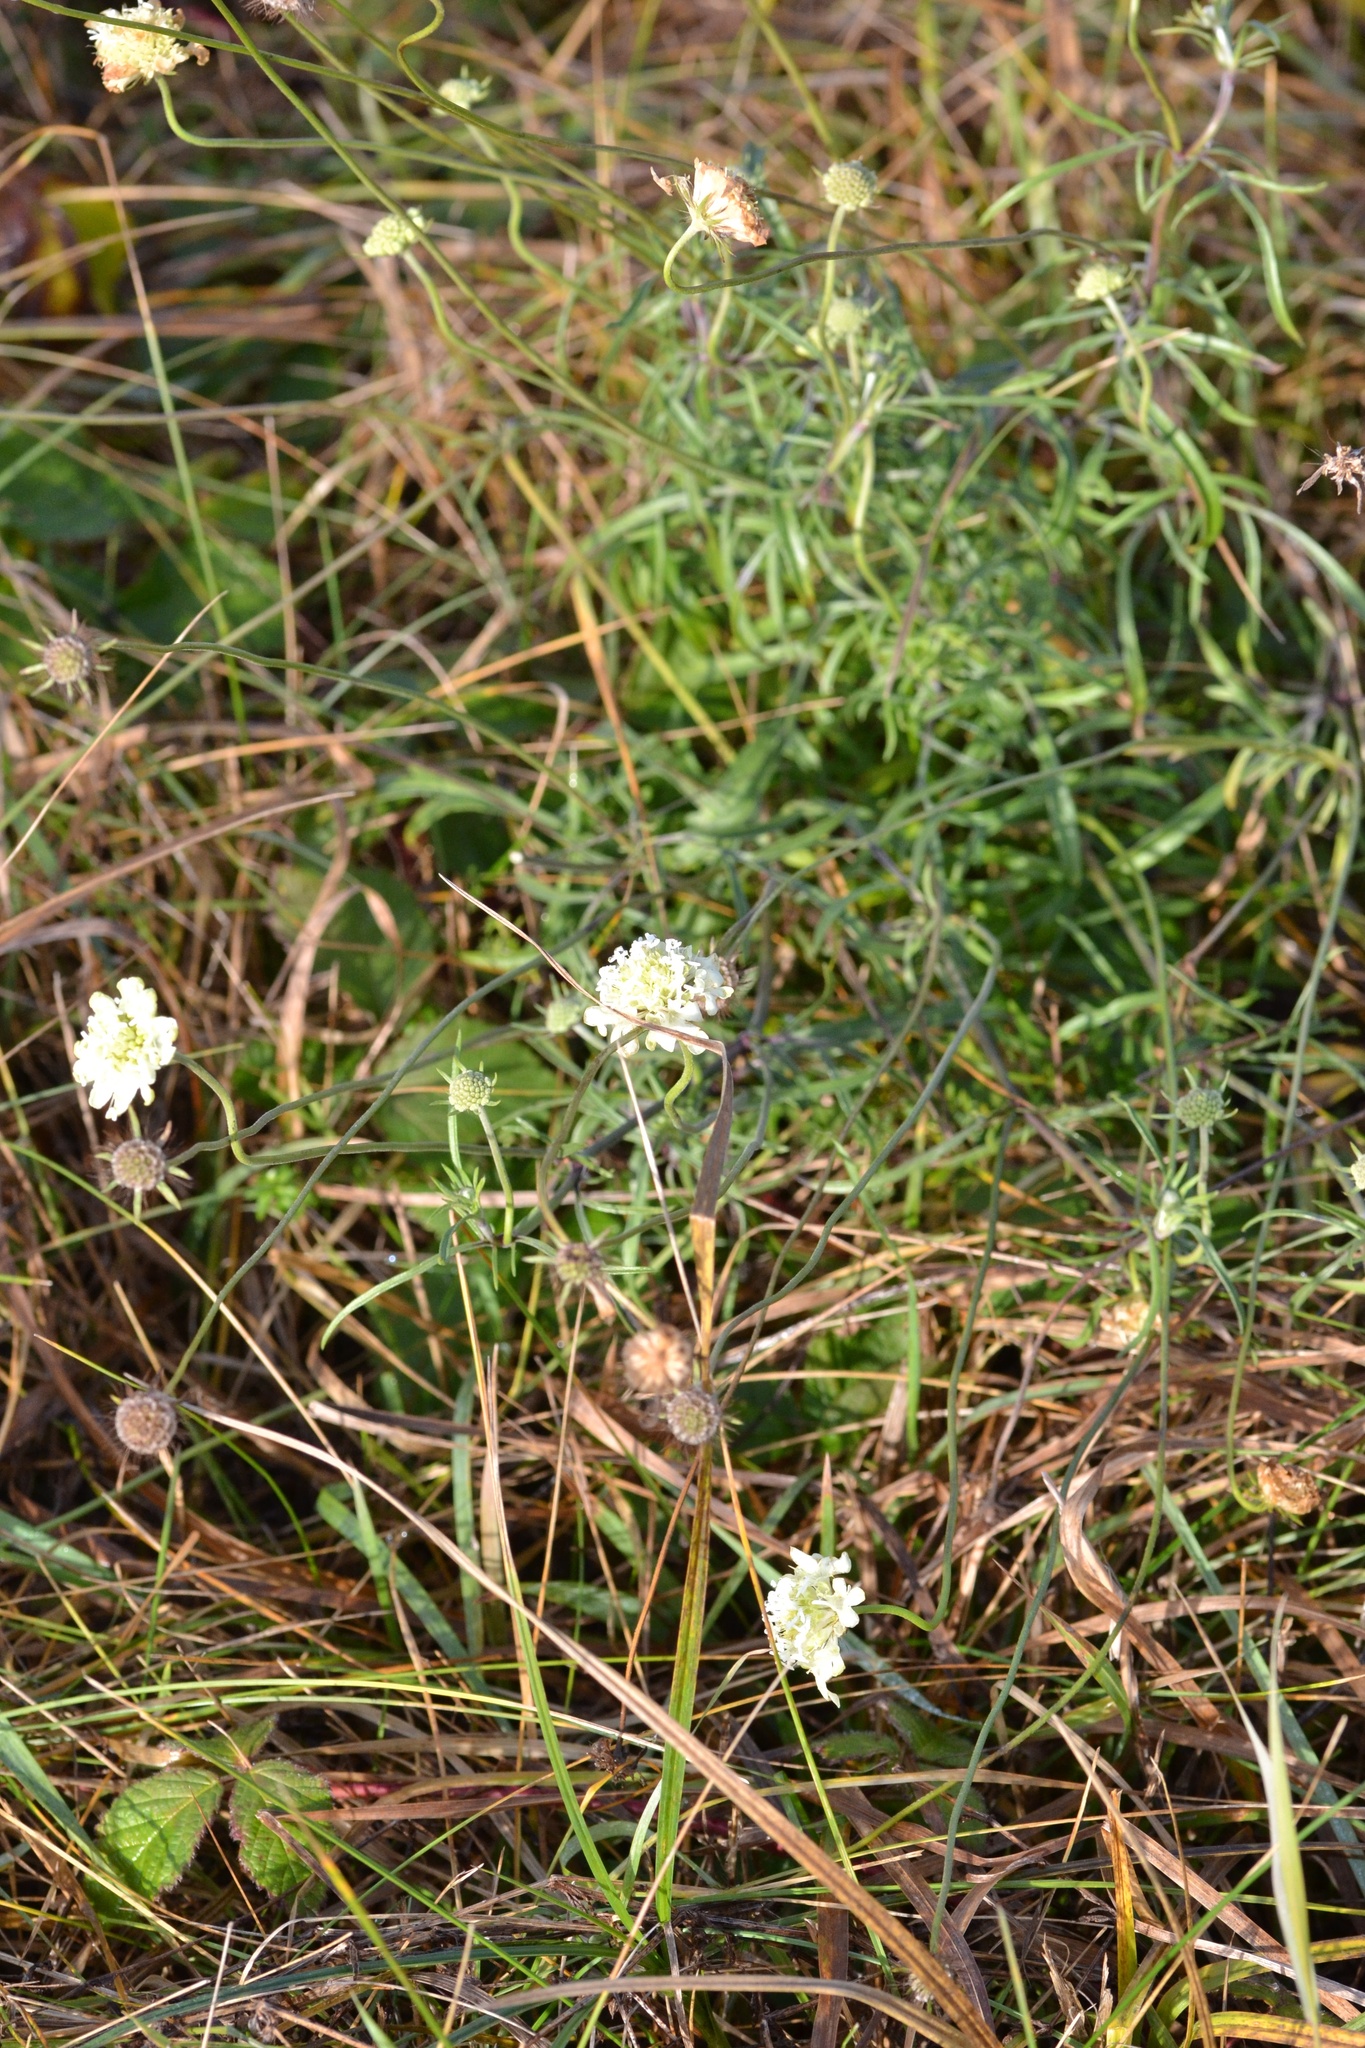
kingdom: Plantae
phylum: Tracheophyta
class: Magnoliopsida
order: Dipsacales
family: Caprifoliaceae
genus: Scabiosa
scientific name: Scabiosa ochroleuca
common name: Cream pincushions
